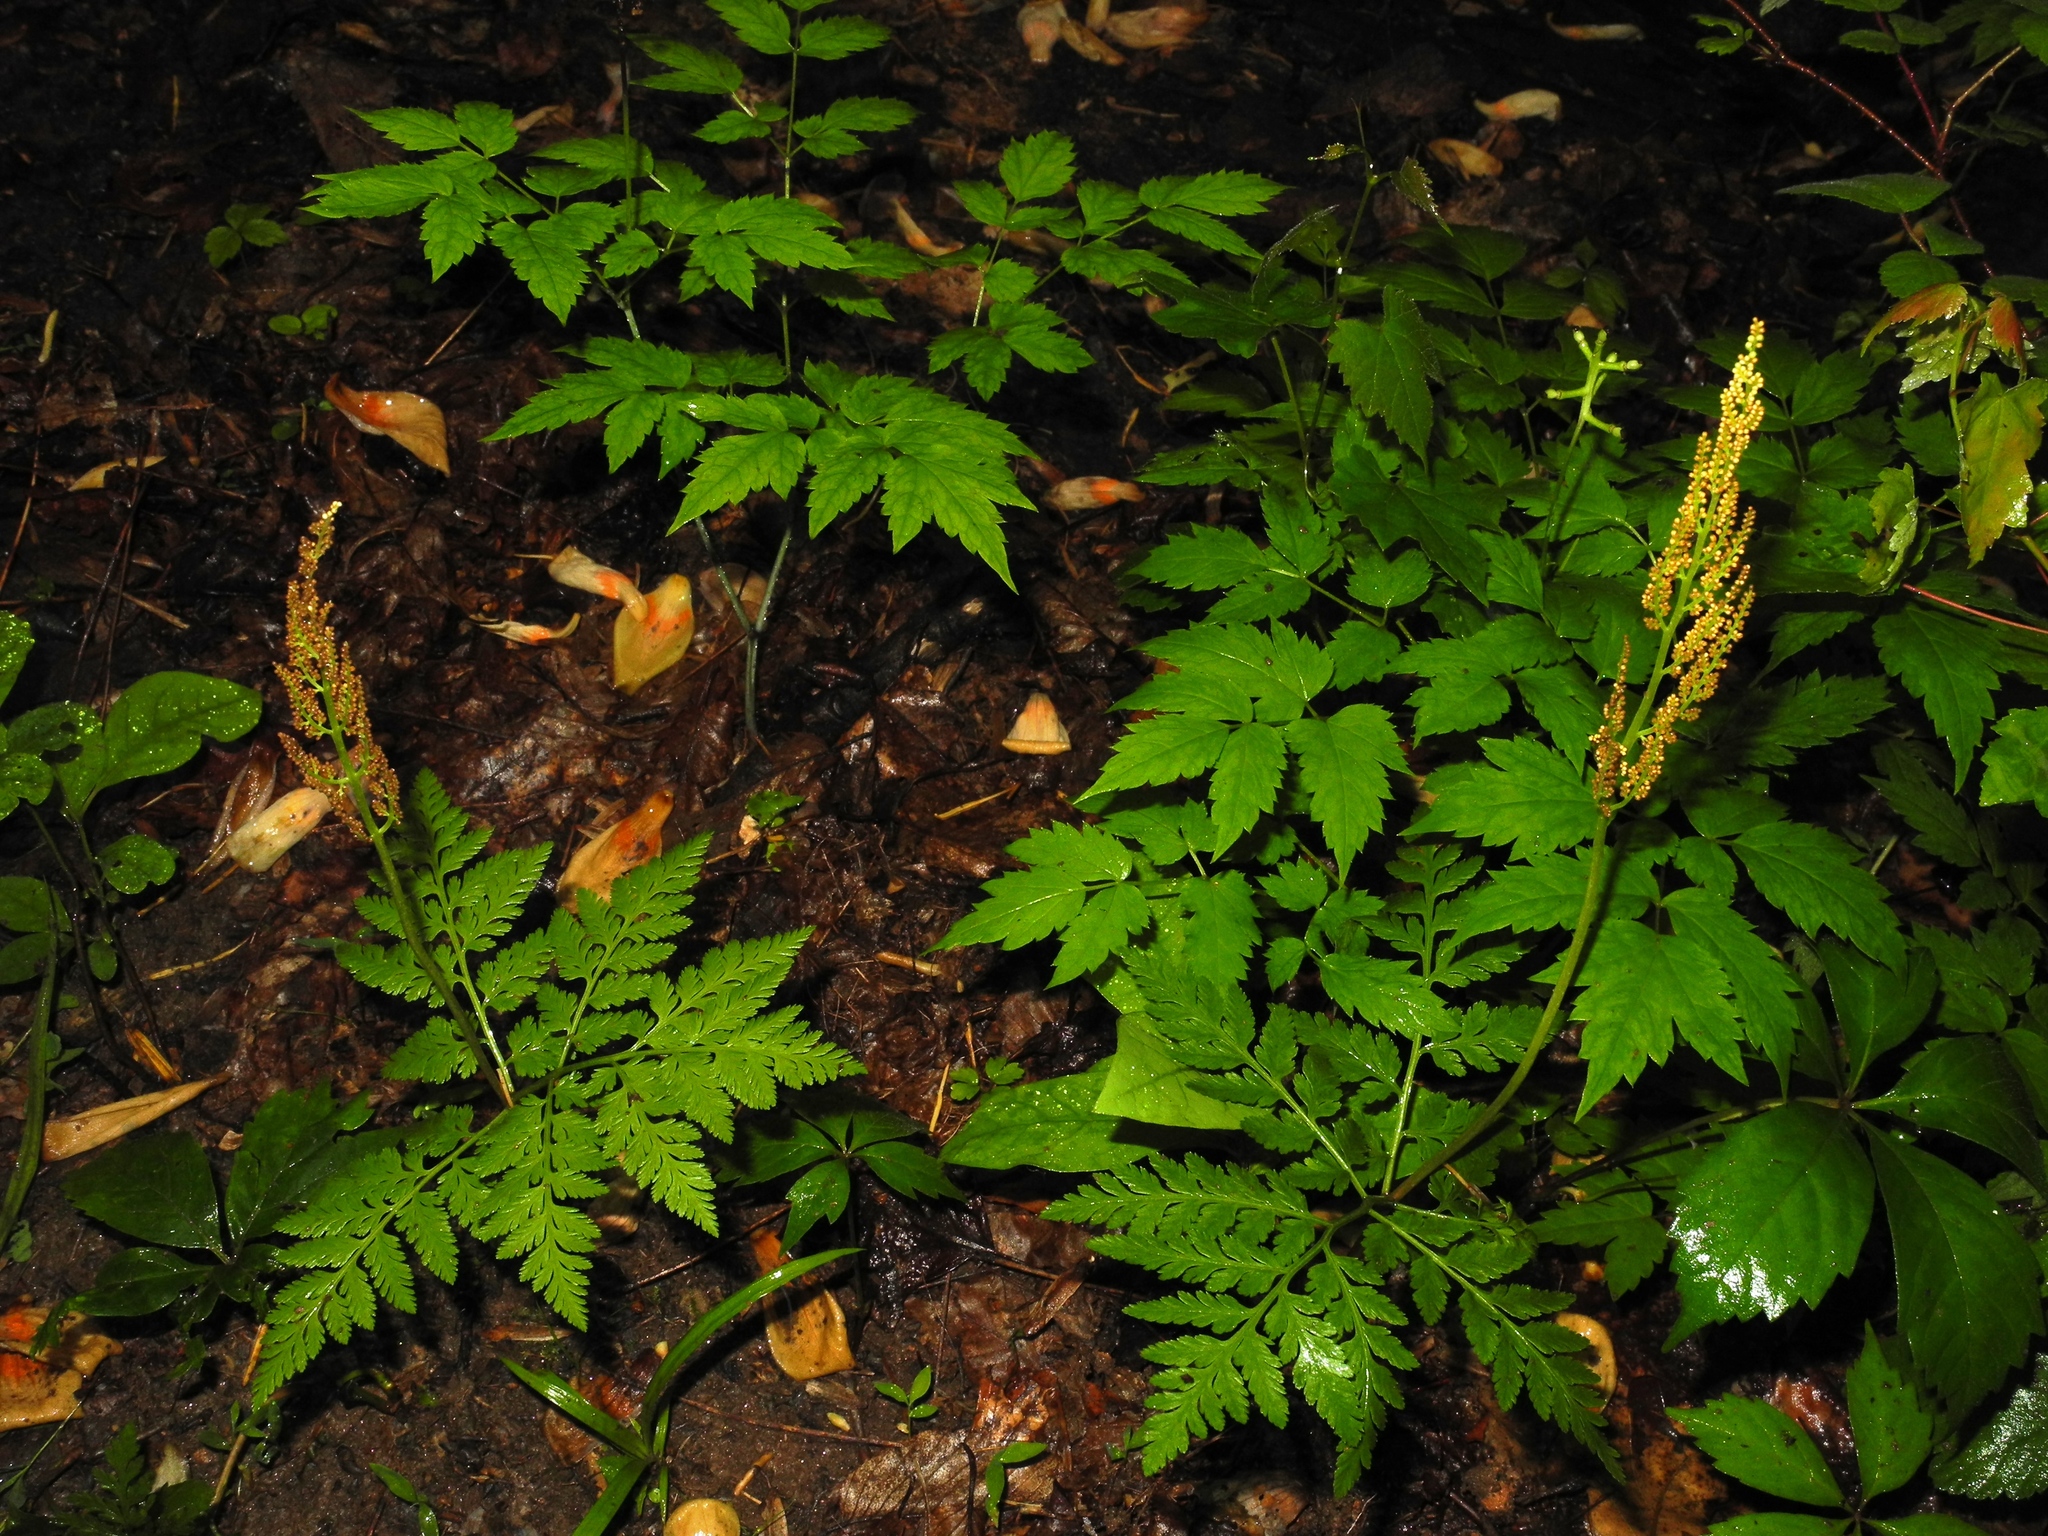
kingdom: Plantae
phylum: Tracheophyta
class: Polypodiopsida
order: Ophioglossales
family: Ophioglossaceae
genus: Botrypus
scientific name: Botrypus virginianus
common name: Common grapefern
